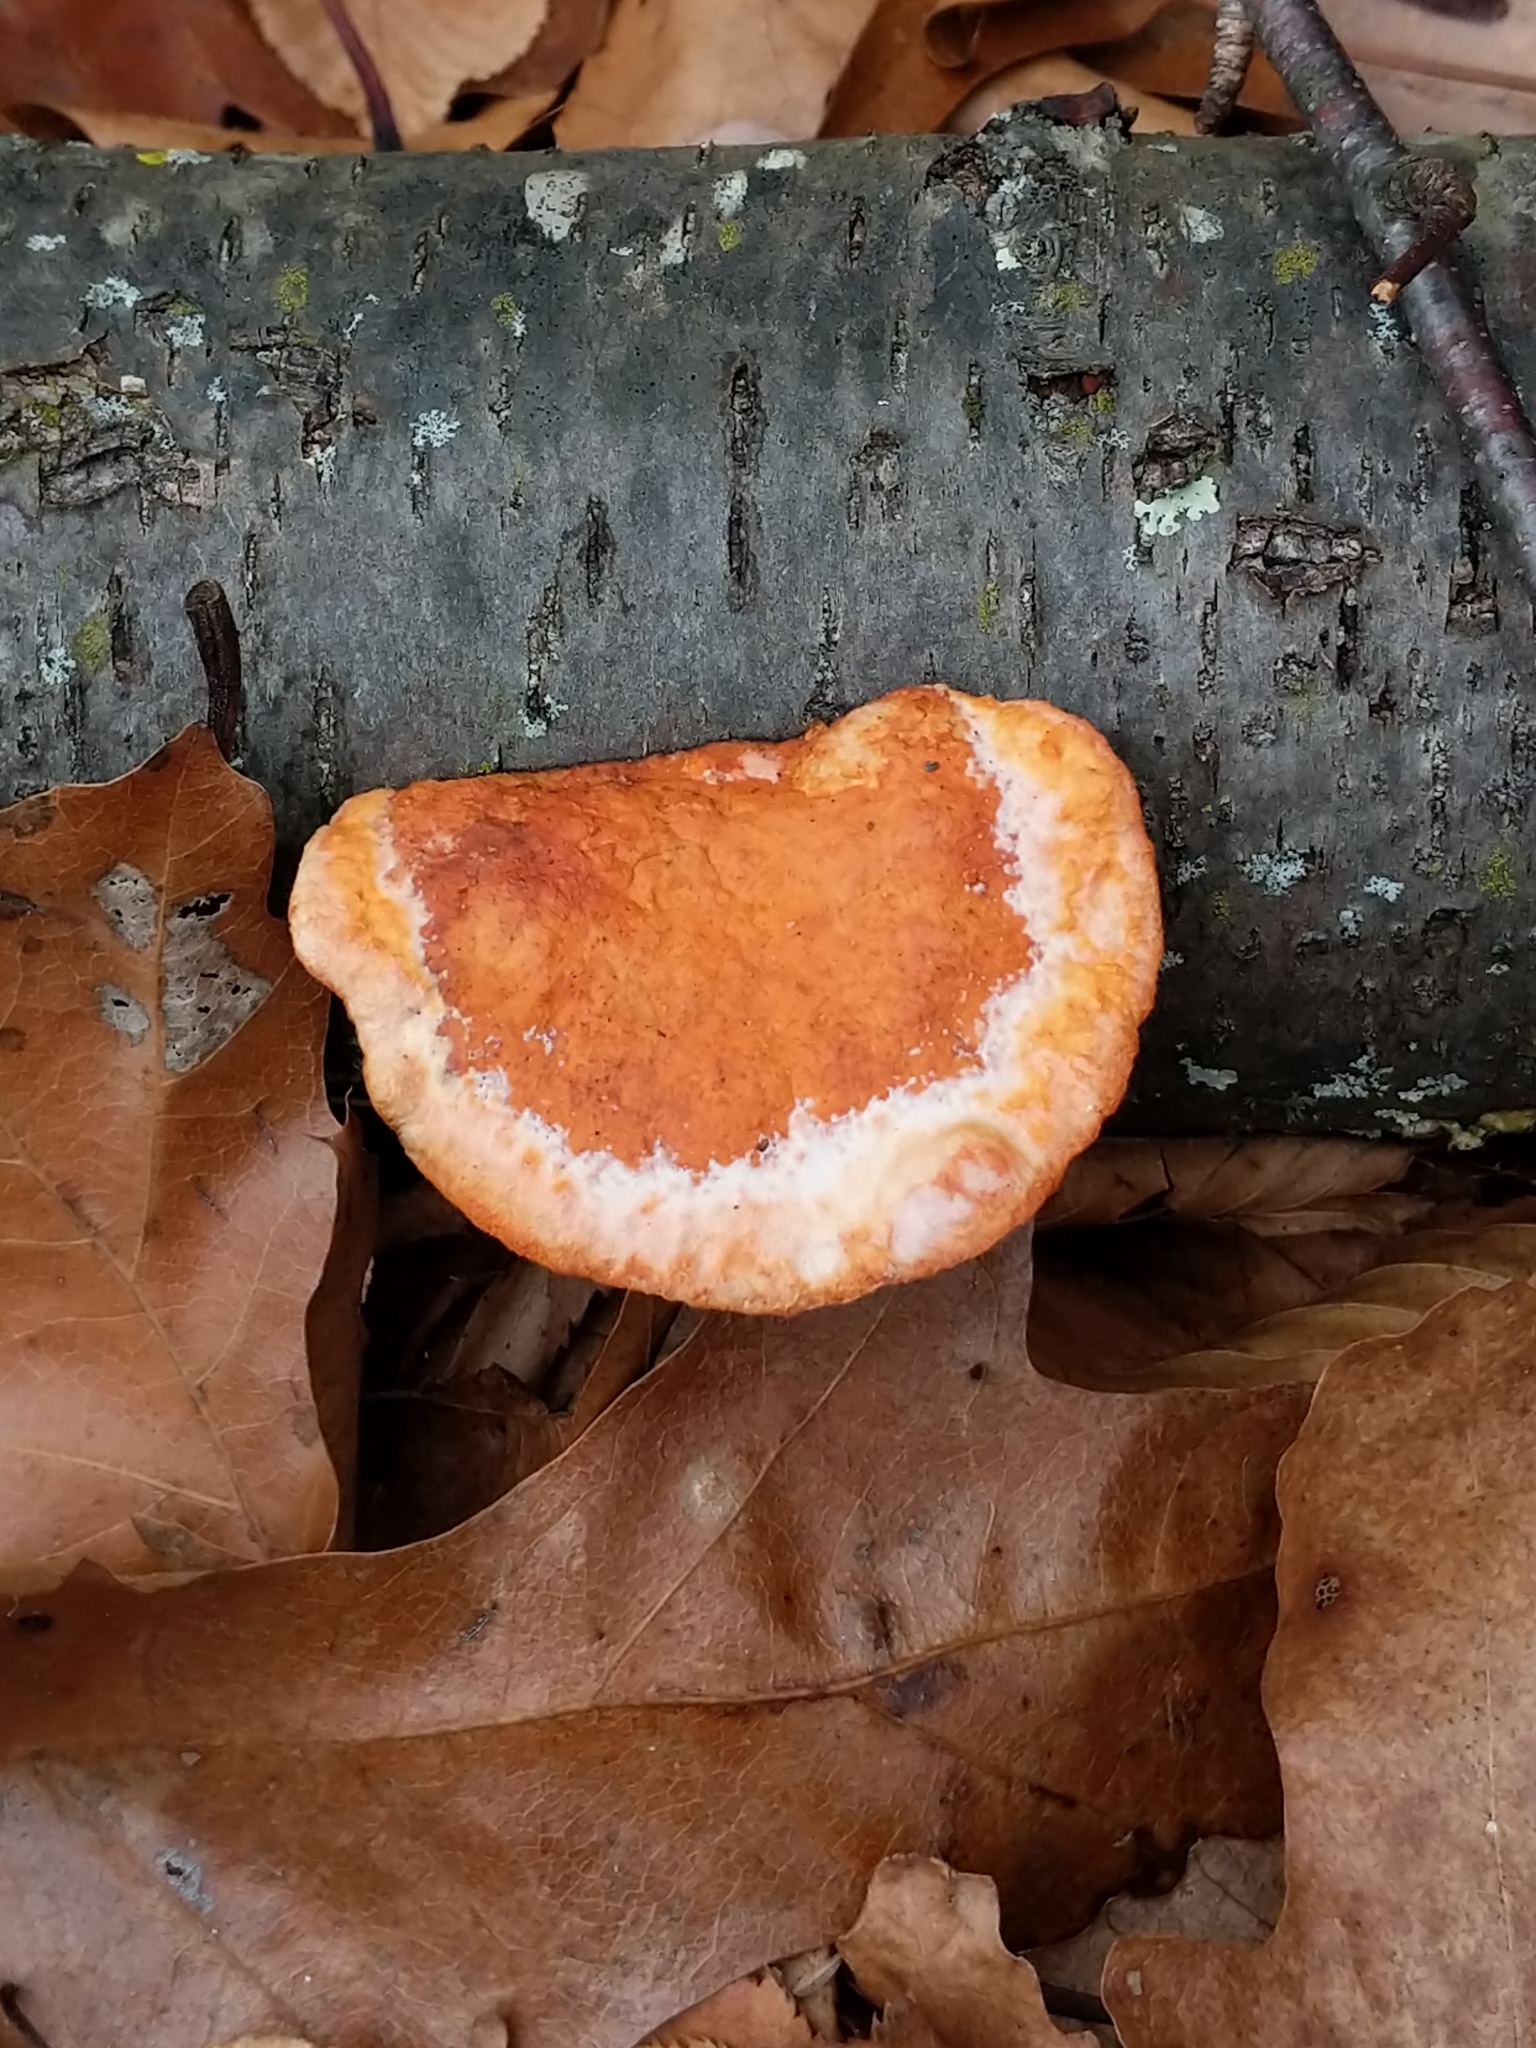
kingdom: Fungi
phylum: Basidiomycota
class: Agaricomycetes
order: Polyporales
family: Polyporaceae
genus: Trametes
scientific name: Trametes cinnabarina
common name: Northern cinnabar polypore
